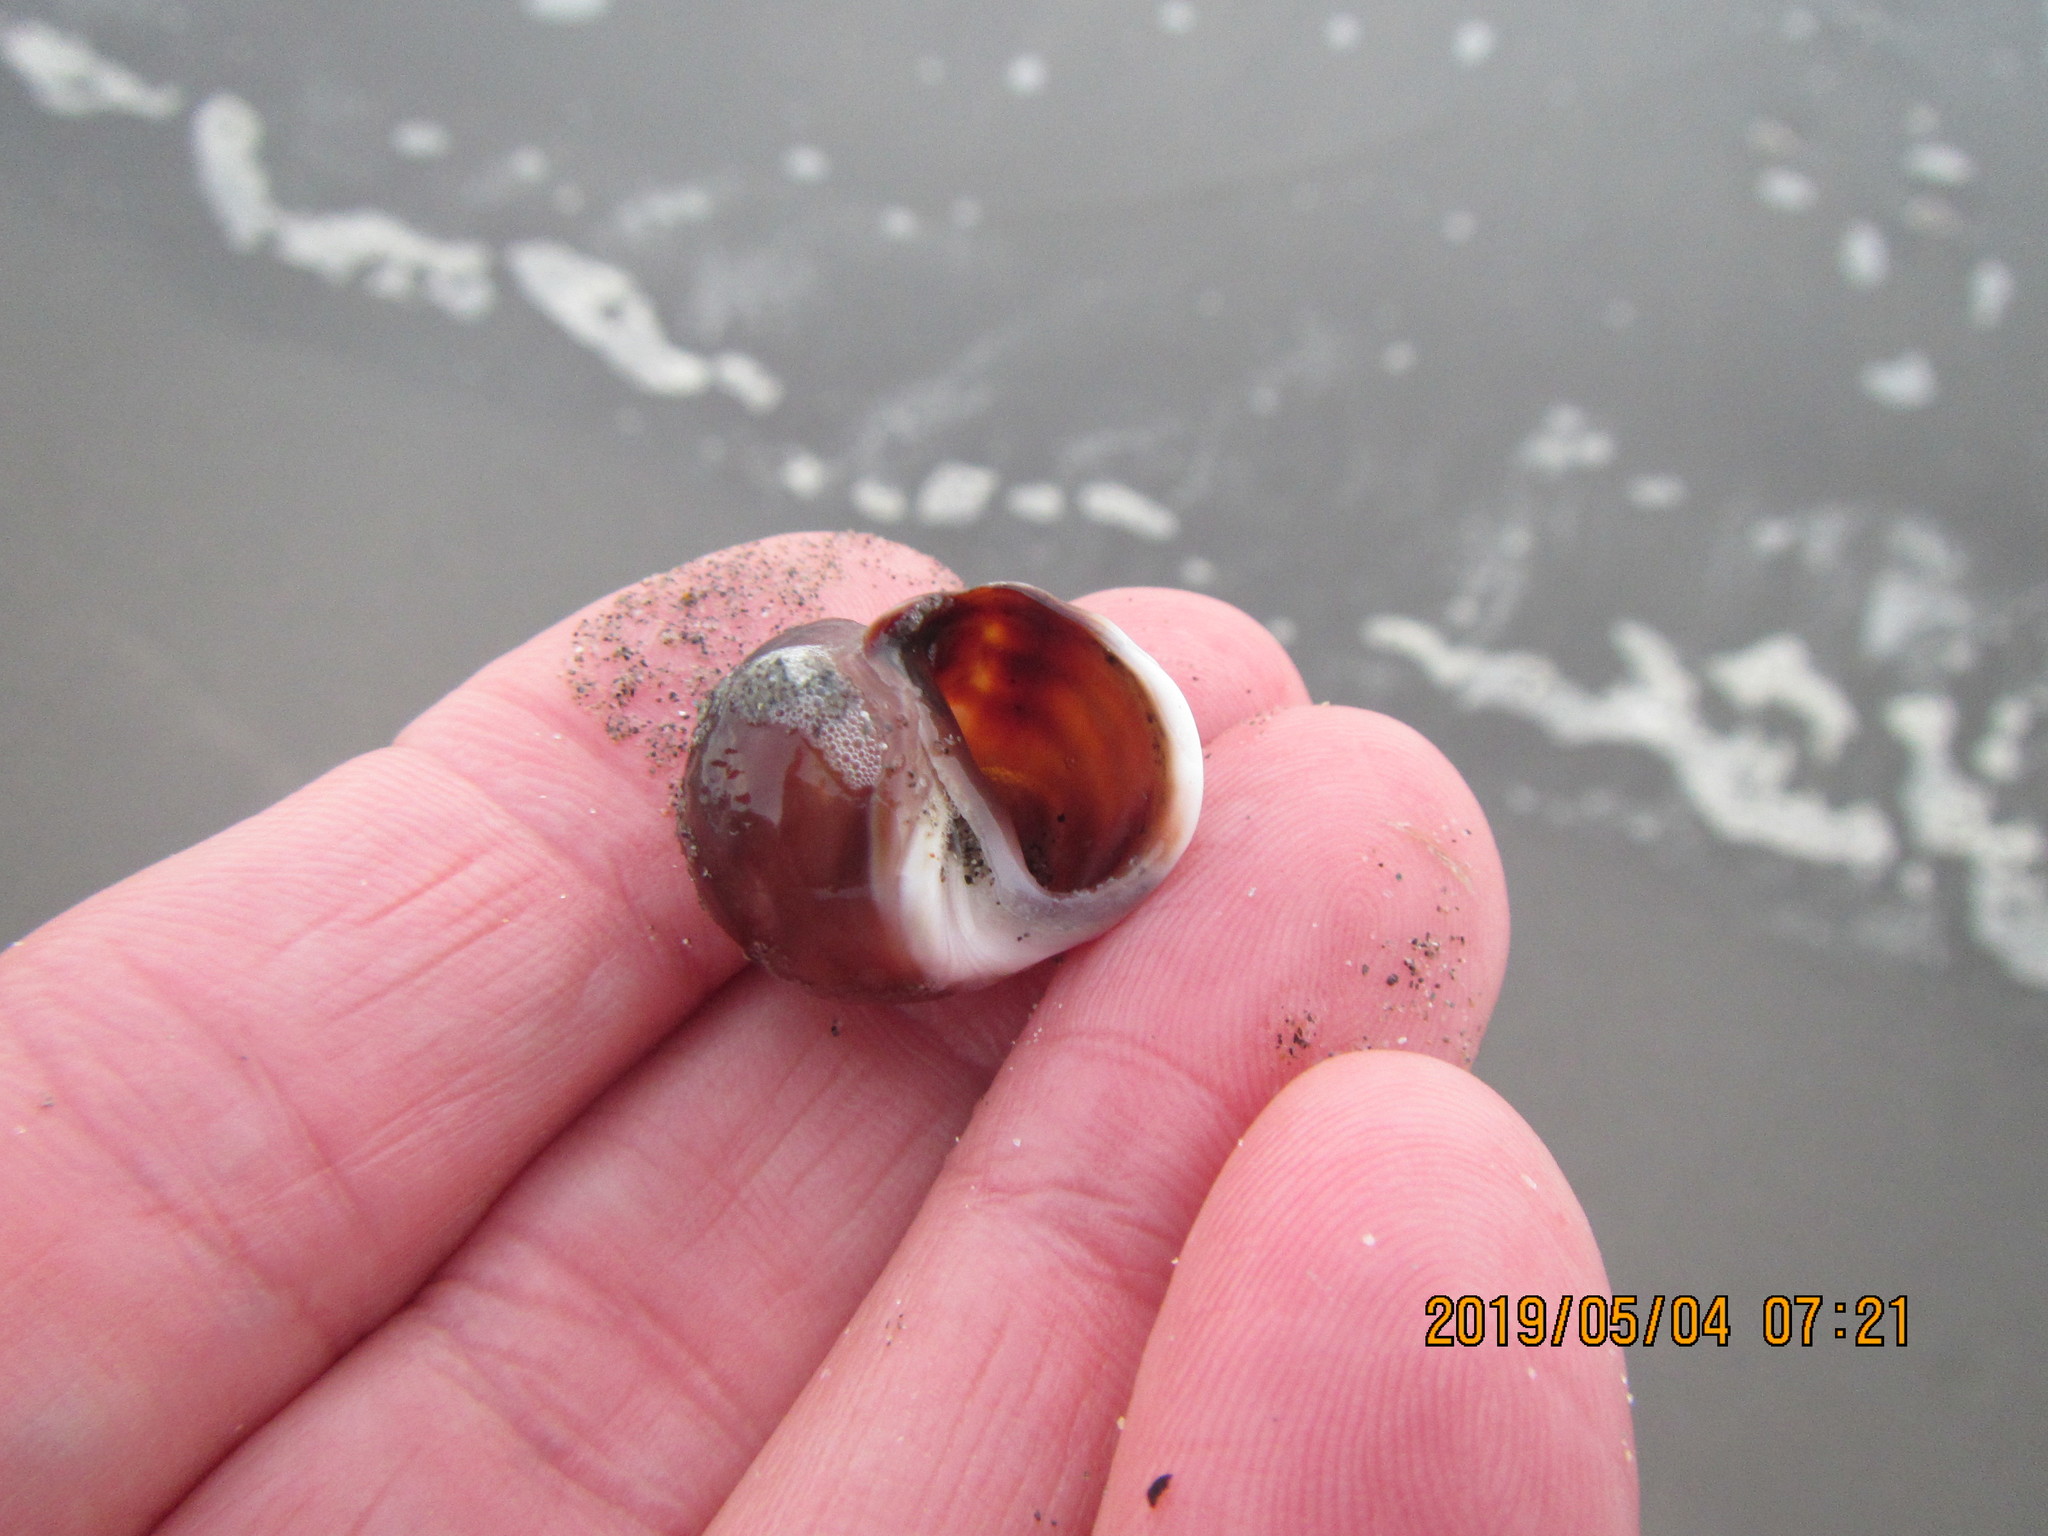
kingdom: Animalia
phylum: Mollusca
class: Gastropoda
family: Amphibolidae
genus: Amphibola
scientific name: Amphibola crenata
